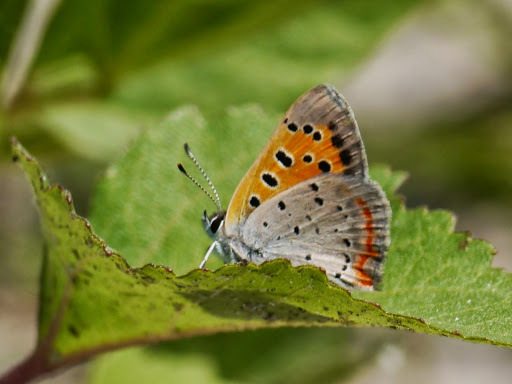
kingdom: Animalia
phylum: Arthropoda
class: Insecta
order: Lepidoptera
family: Lycaenidae
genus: Lycaena
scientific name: Lycaena hypophlaeas
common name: American copper
